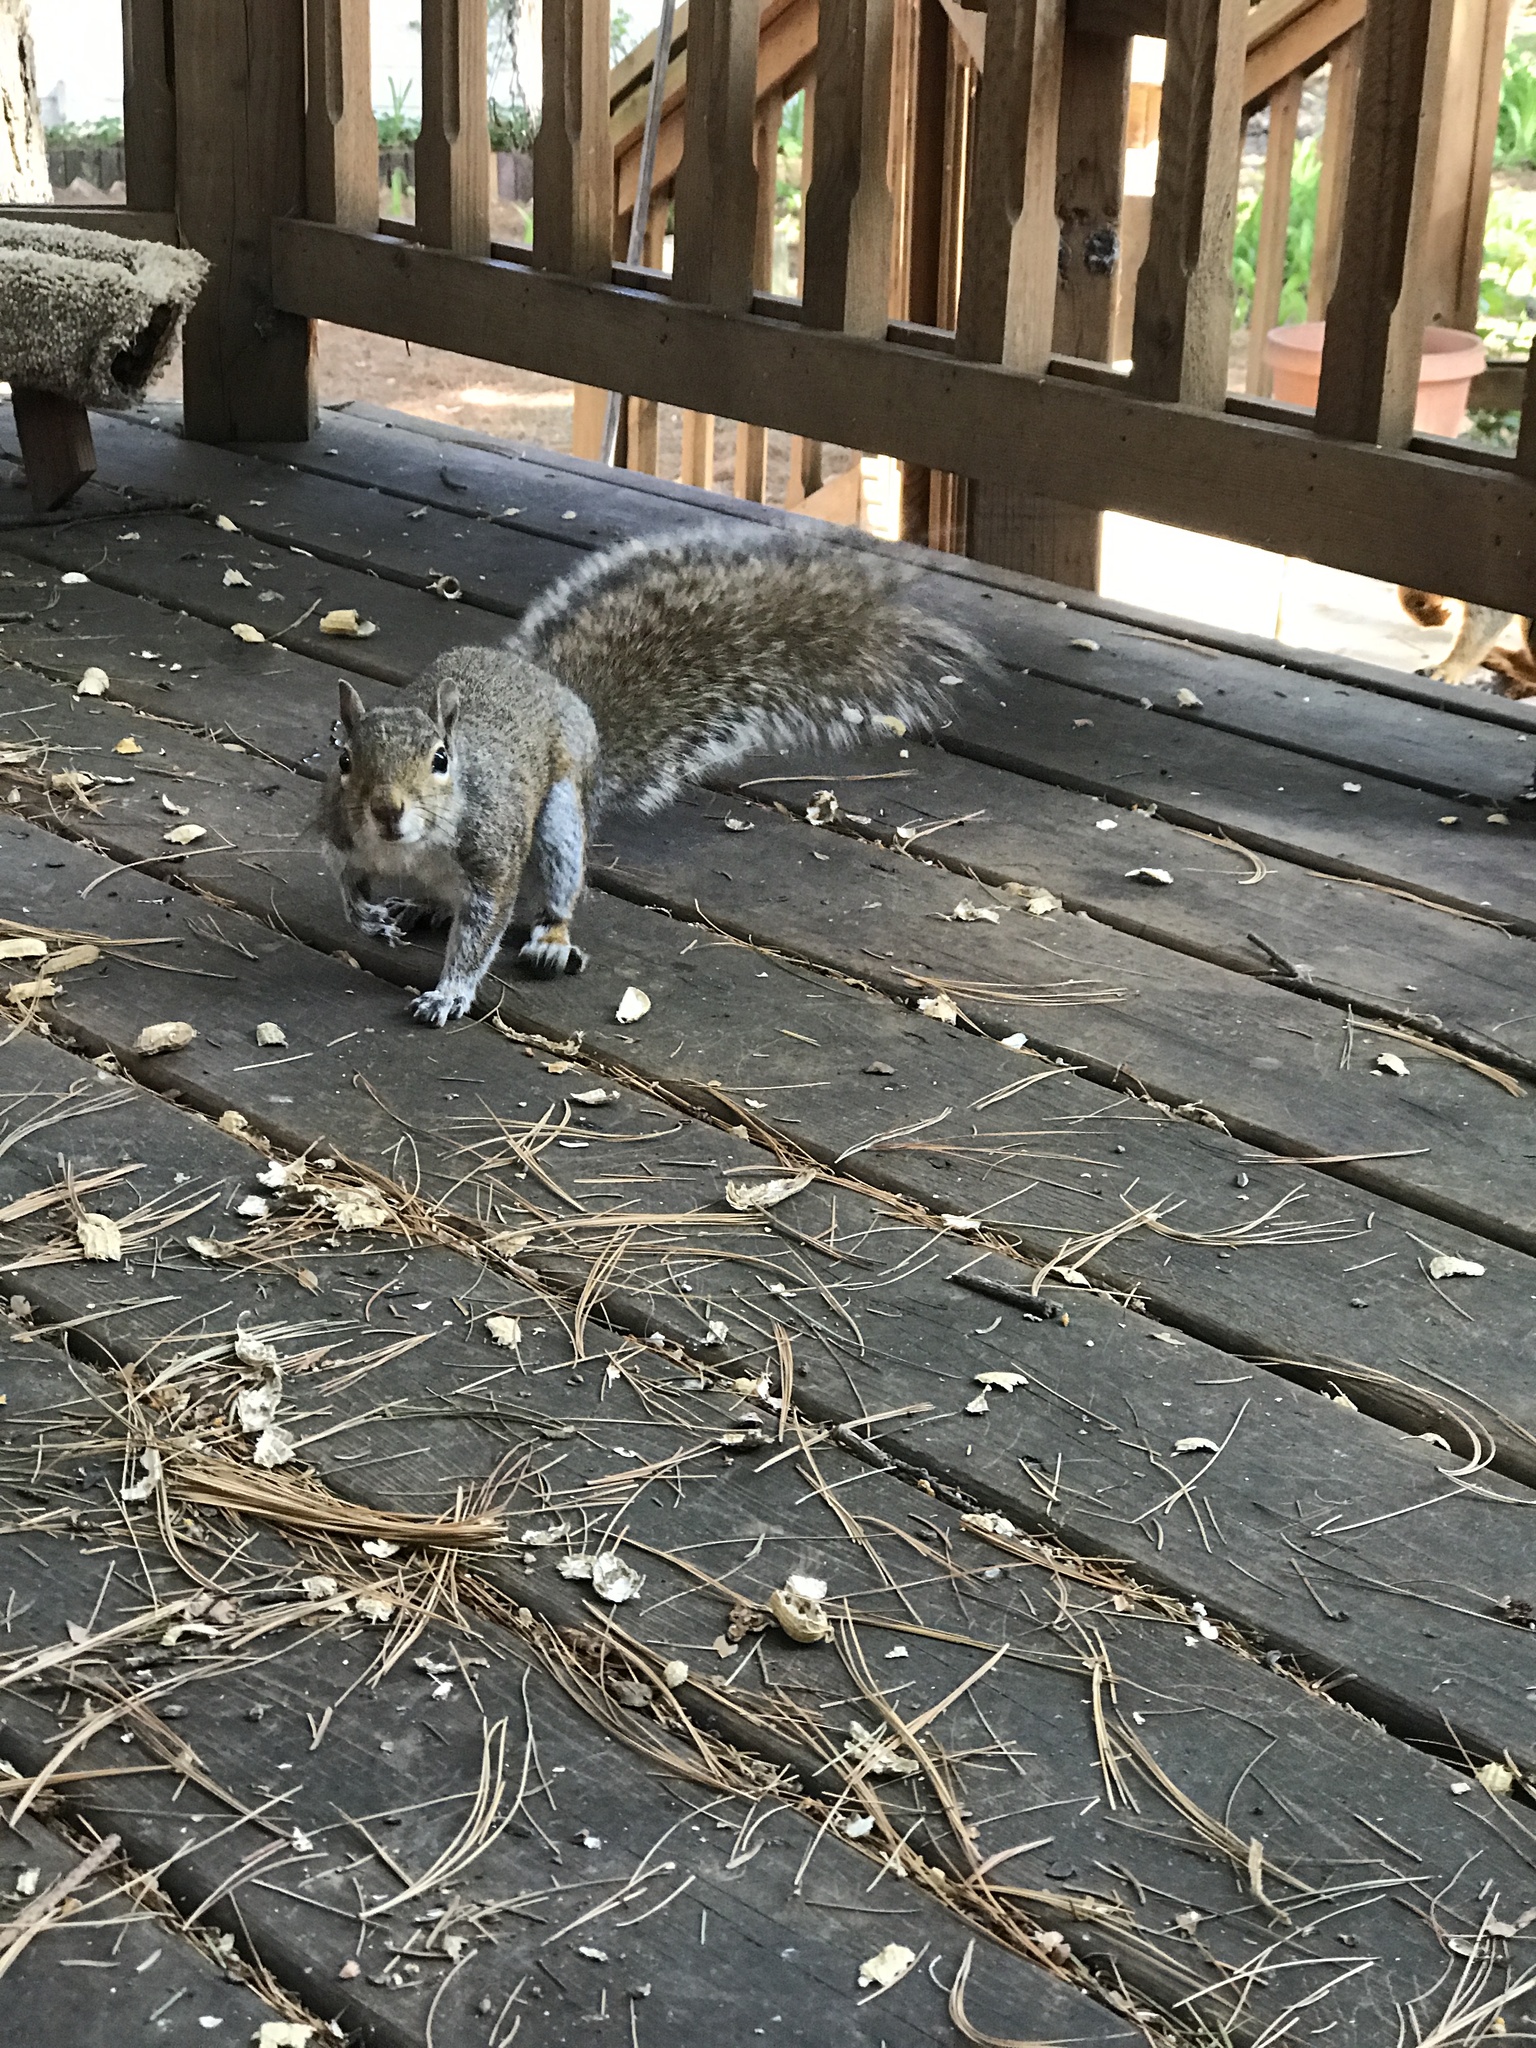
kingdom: Animalia
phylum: Chordata
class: Mammalia
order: Rodentia
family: Sciuridae
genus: Sciurus
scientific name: Sciurus carolinensis
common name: Eastern gray squirrel
